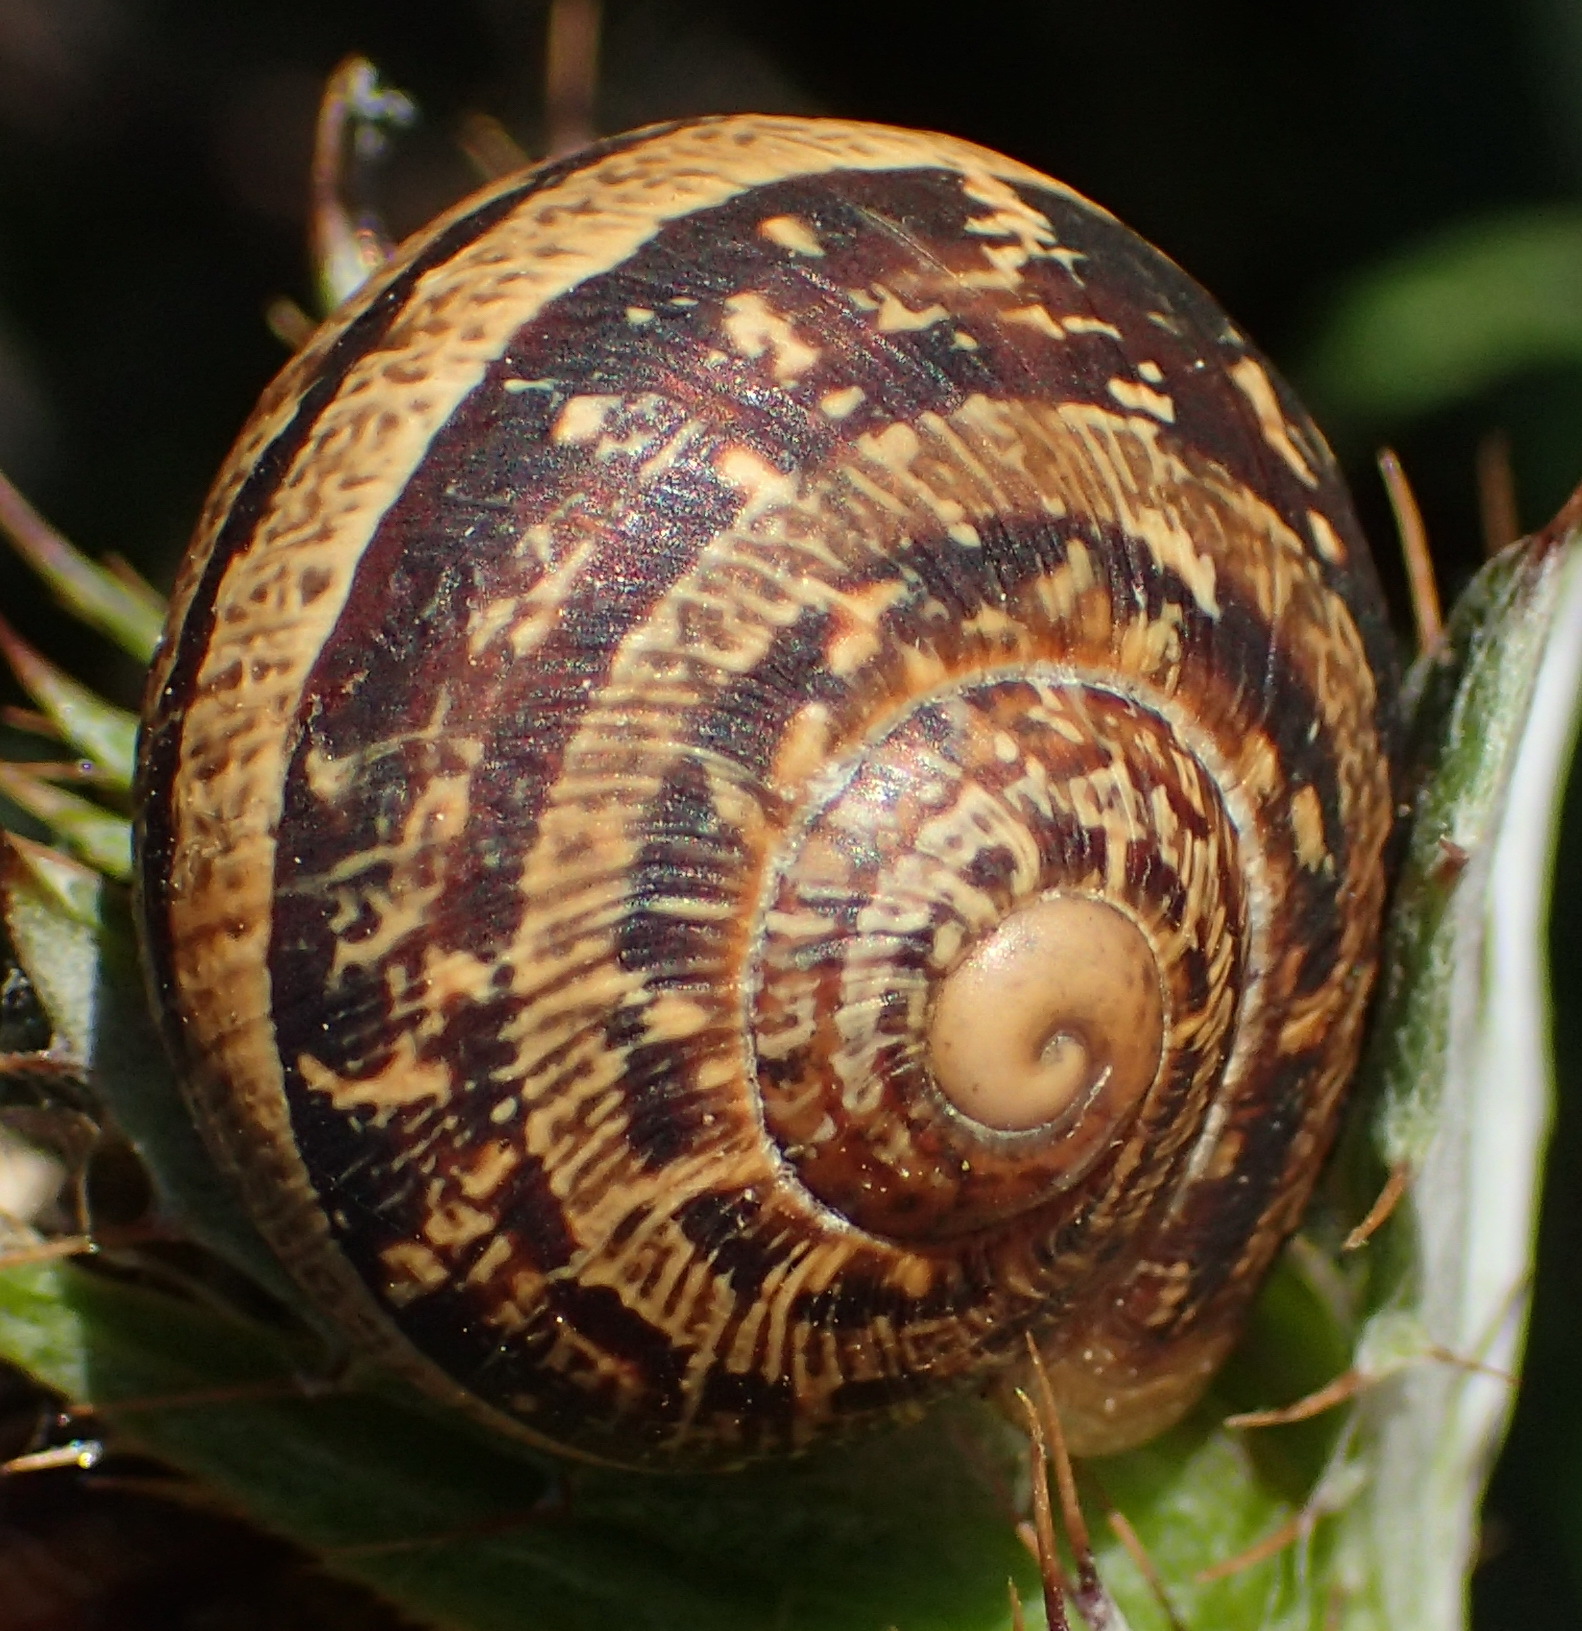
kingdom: Animalia
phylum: Mollusca
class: Gastropoda
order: Stylommatophora
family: Helicidae
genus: Cornu
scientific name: Cornu aspersum
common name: Brown garden snail
